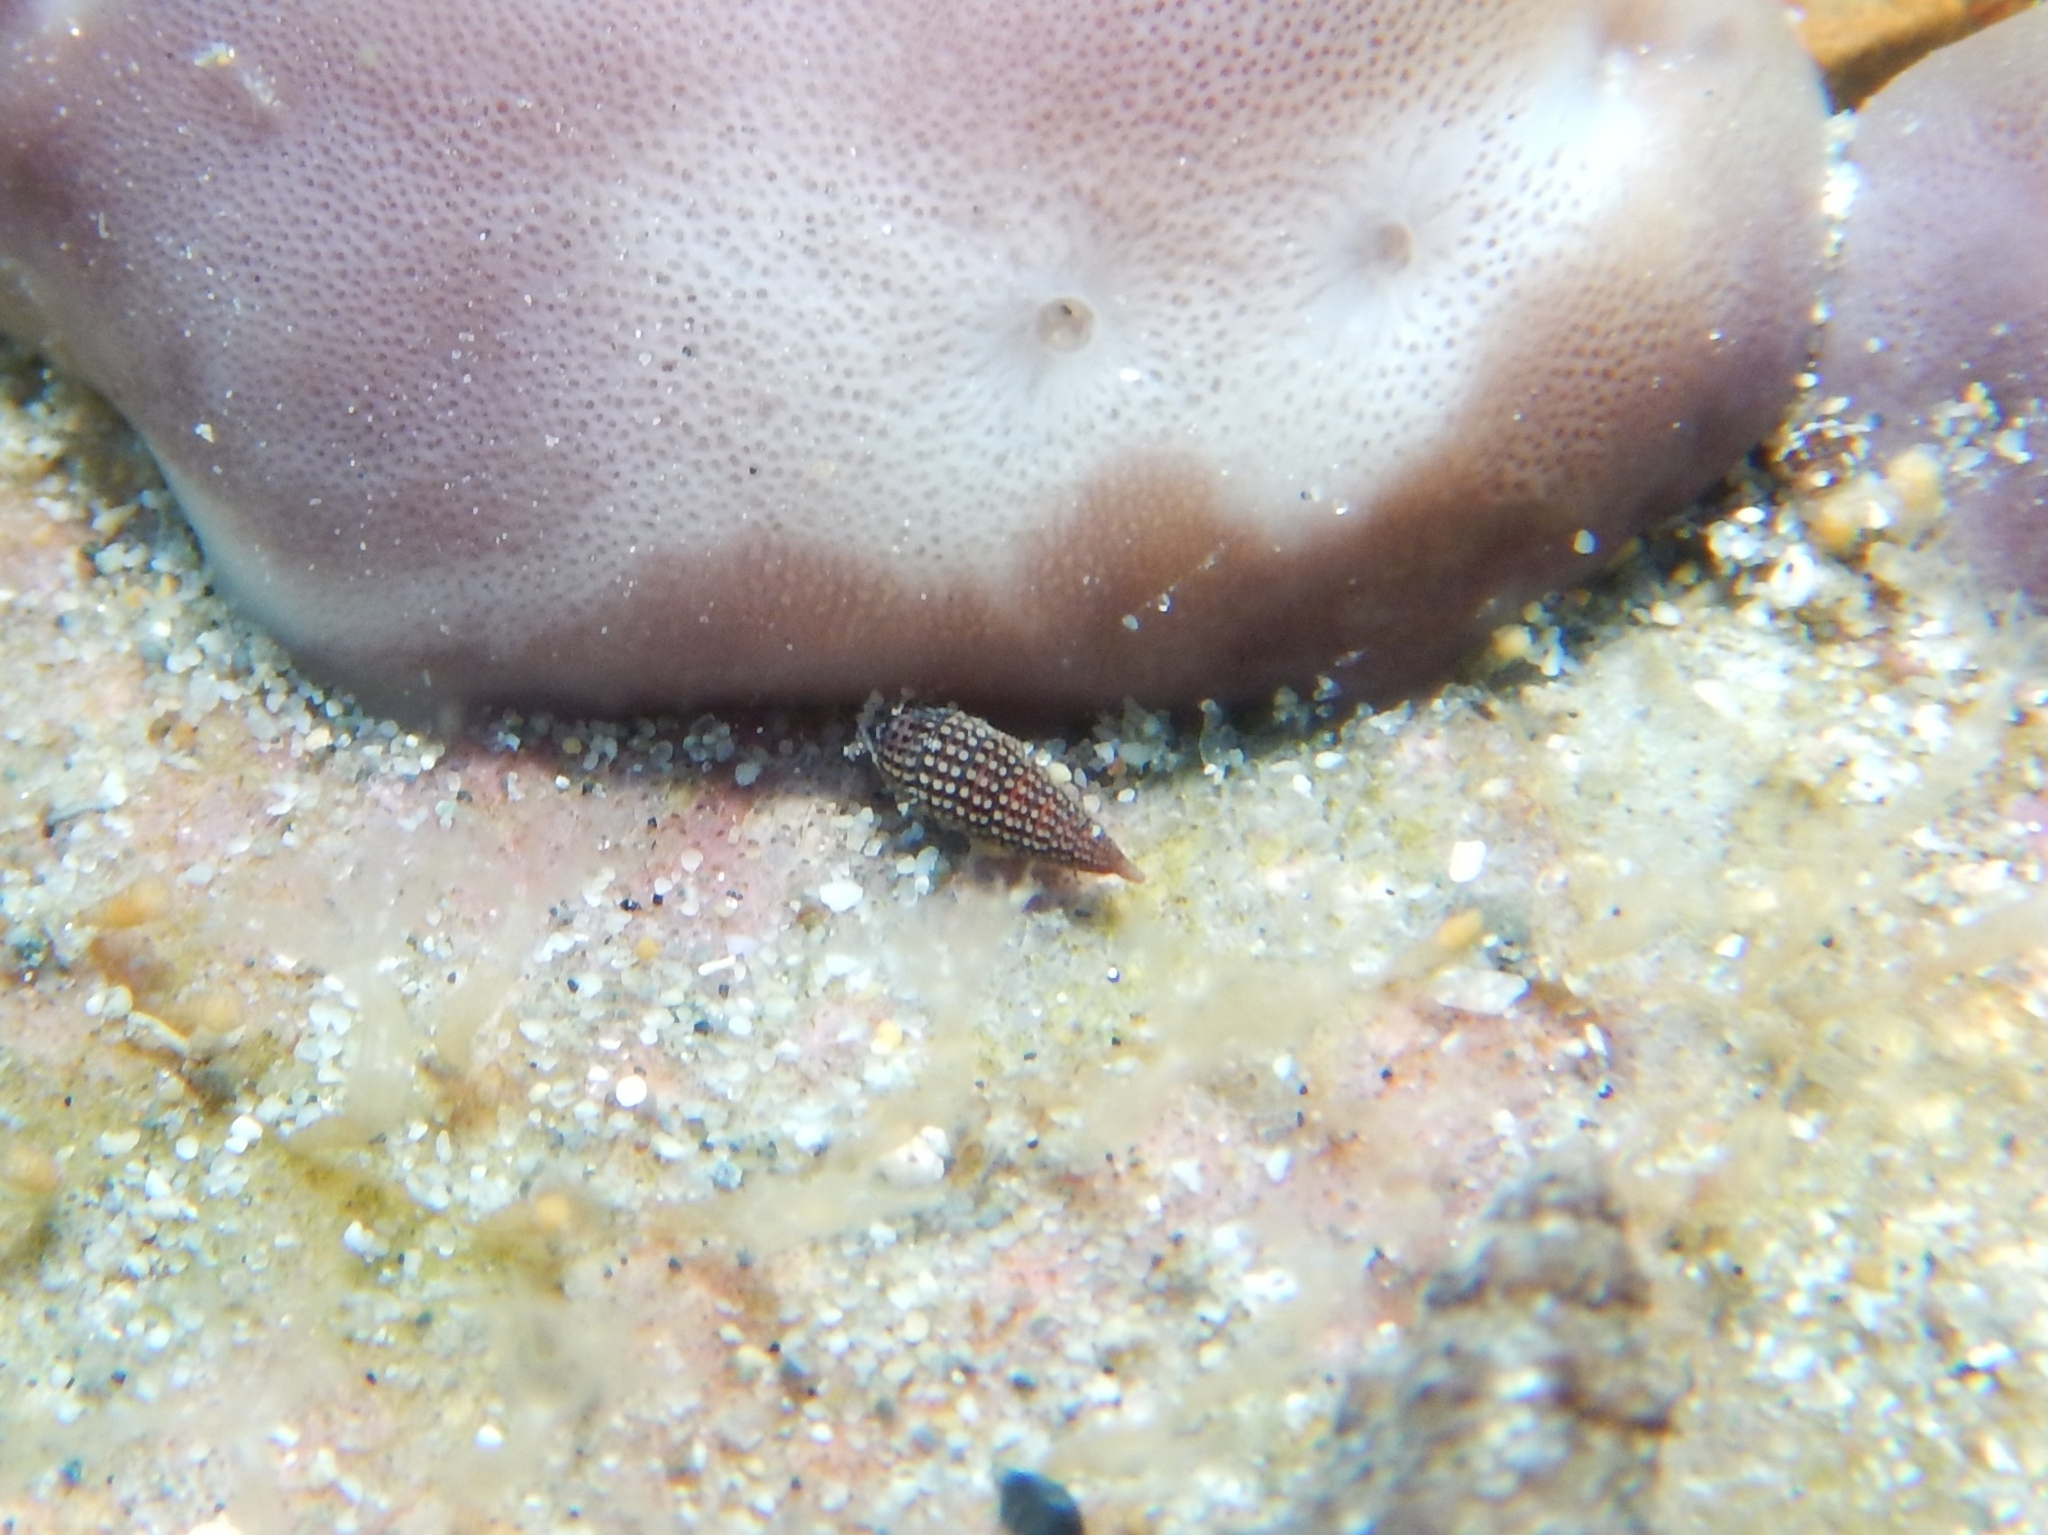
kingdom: Animalia
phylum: Mollusca
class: Gastropoda
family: Cerithiopsidae
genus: Cerithiopsis
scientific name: Cerithiopsis tubercularis
